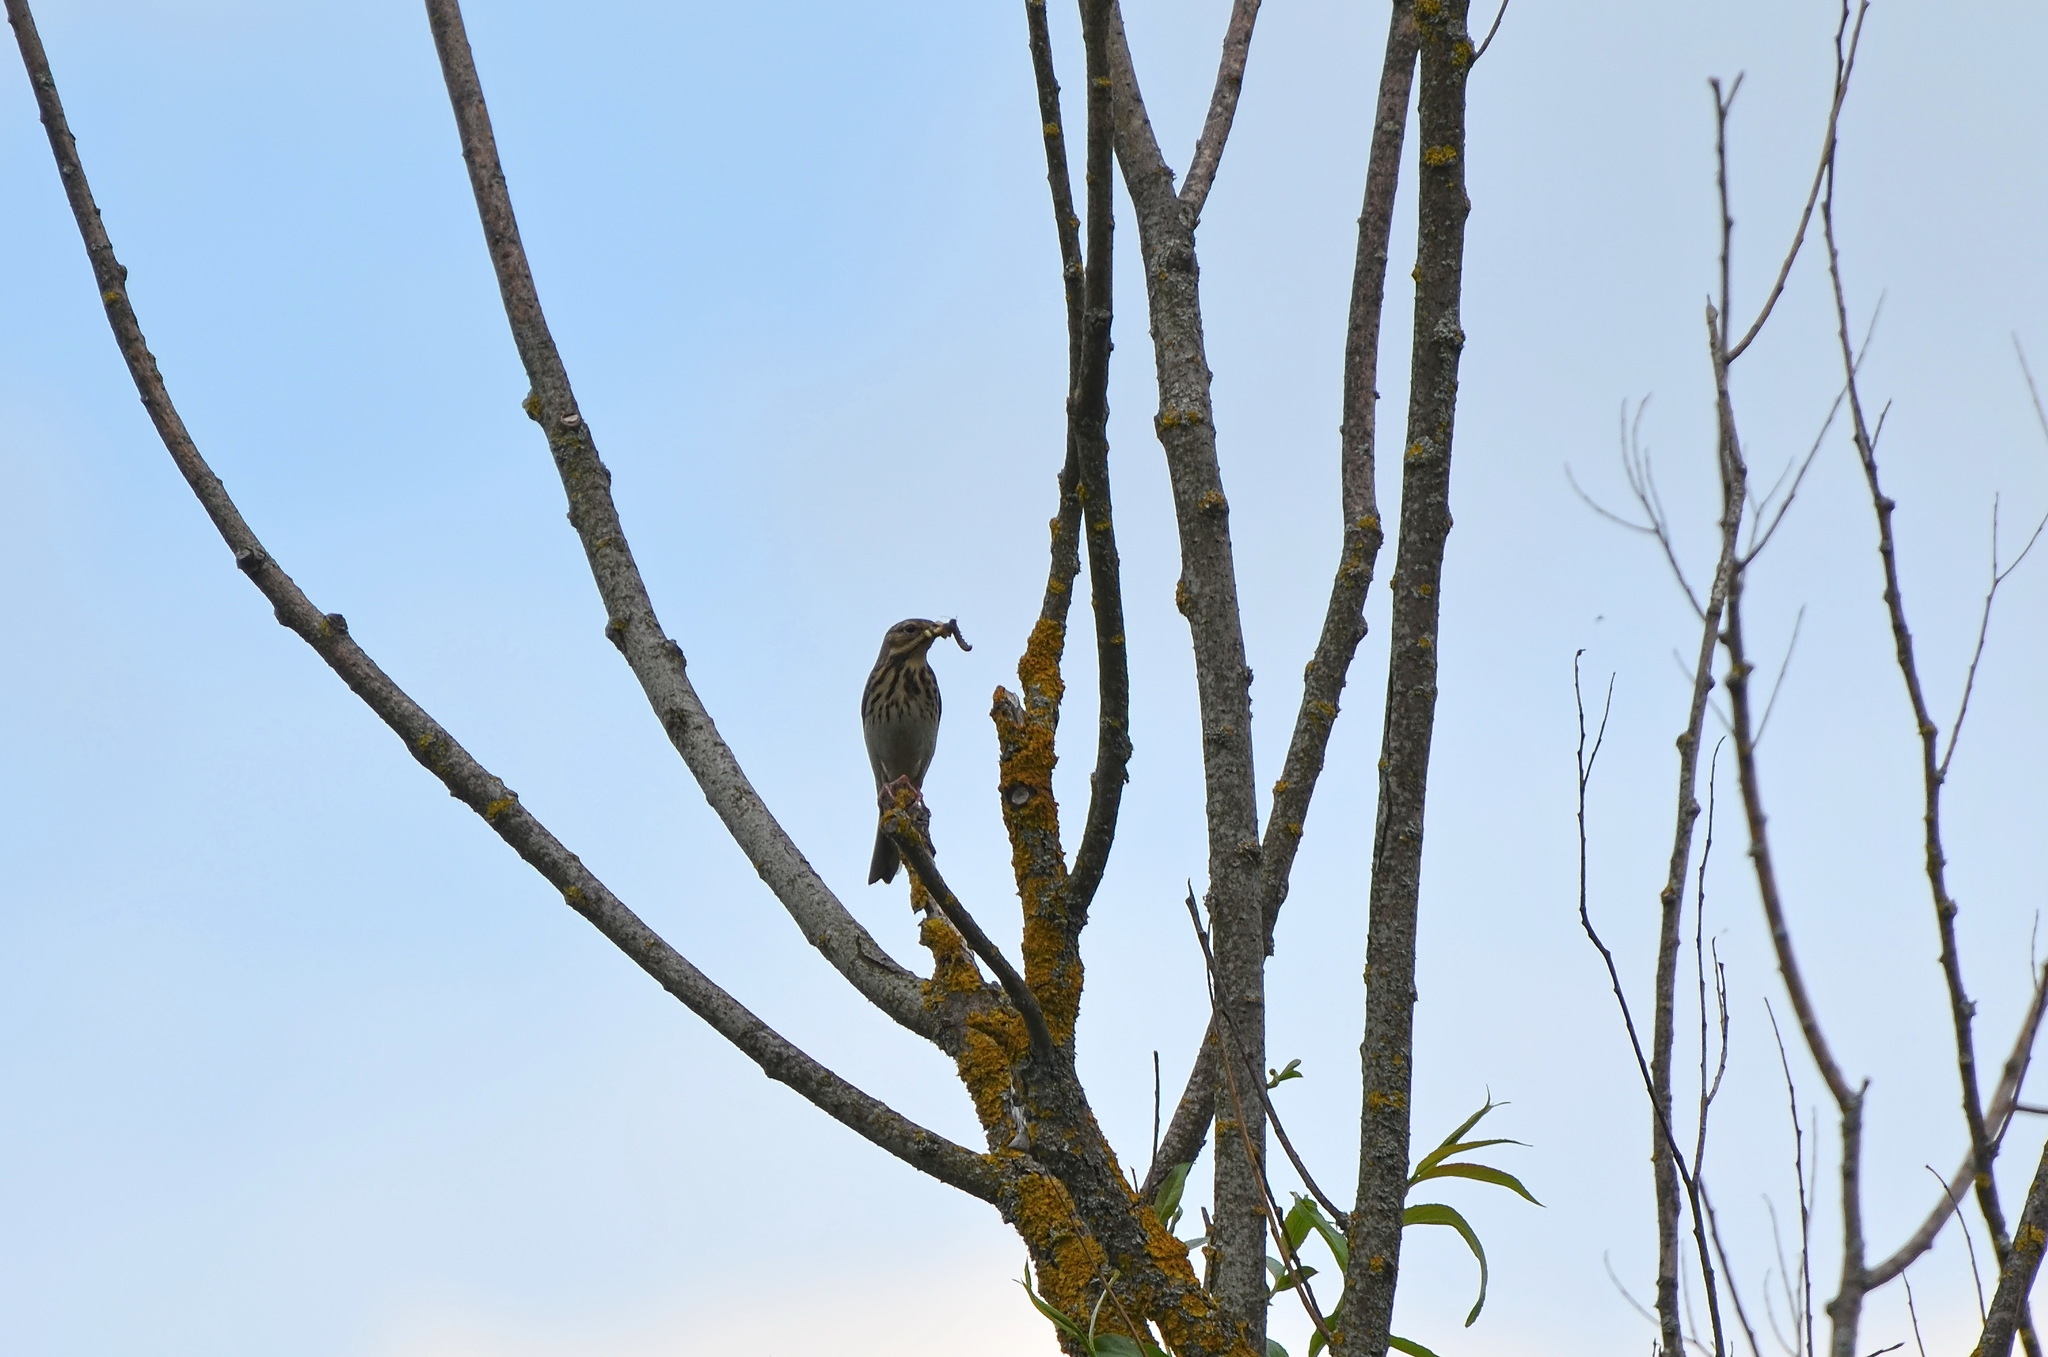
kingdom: Animalia
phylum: Chordata
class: Aves
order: Passeriformes
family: Motacillidae
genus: Anthus
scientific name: Anthus trivialis
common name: Tree pipit
